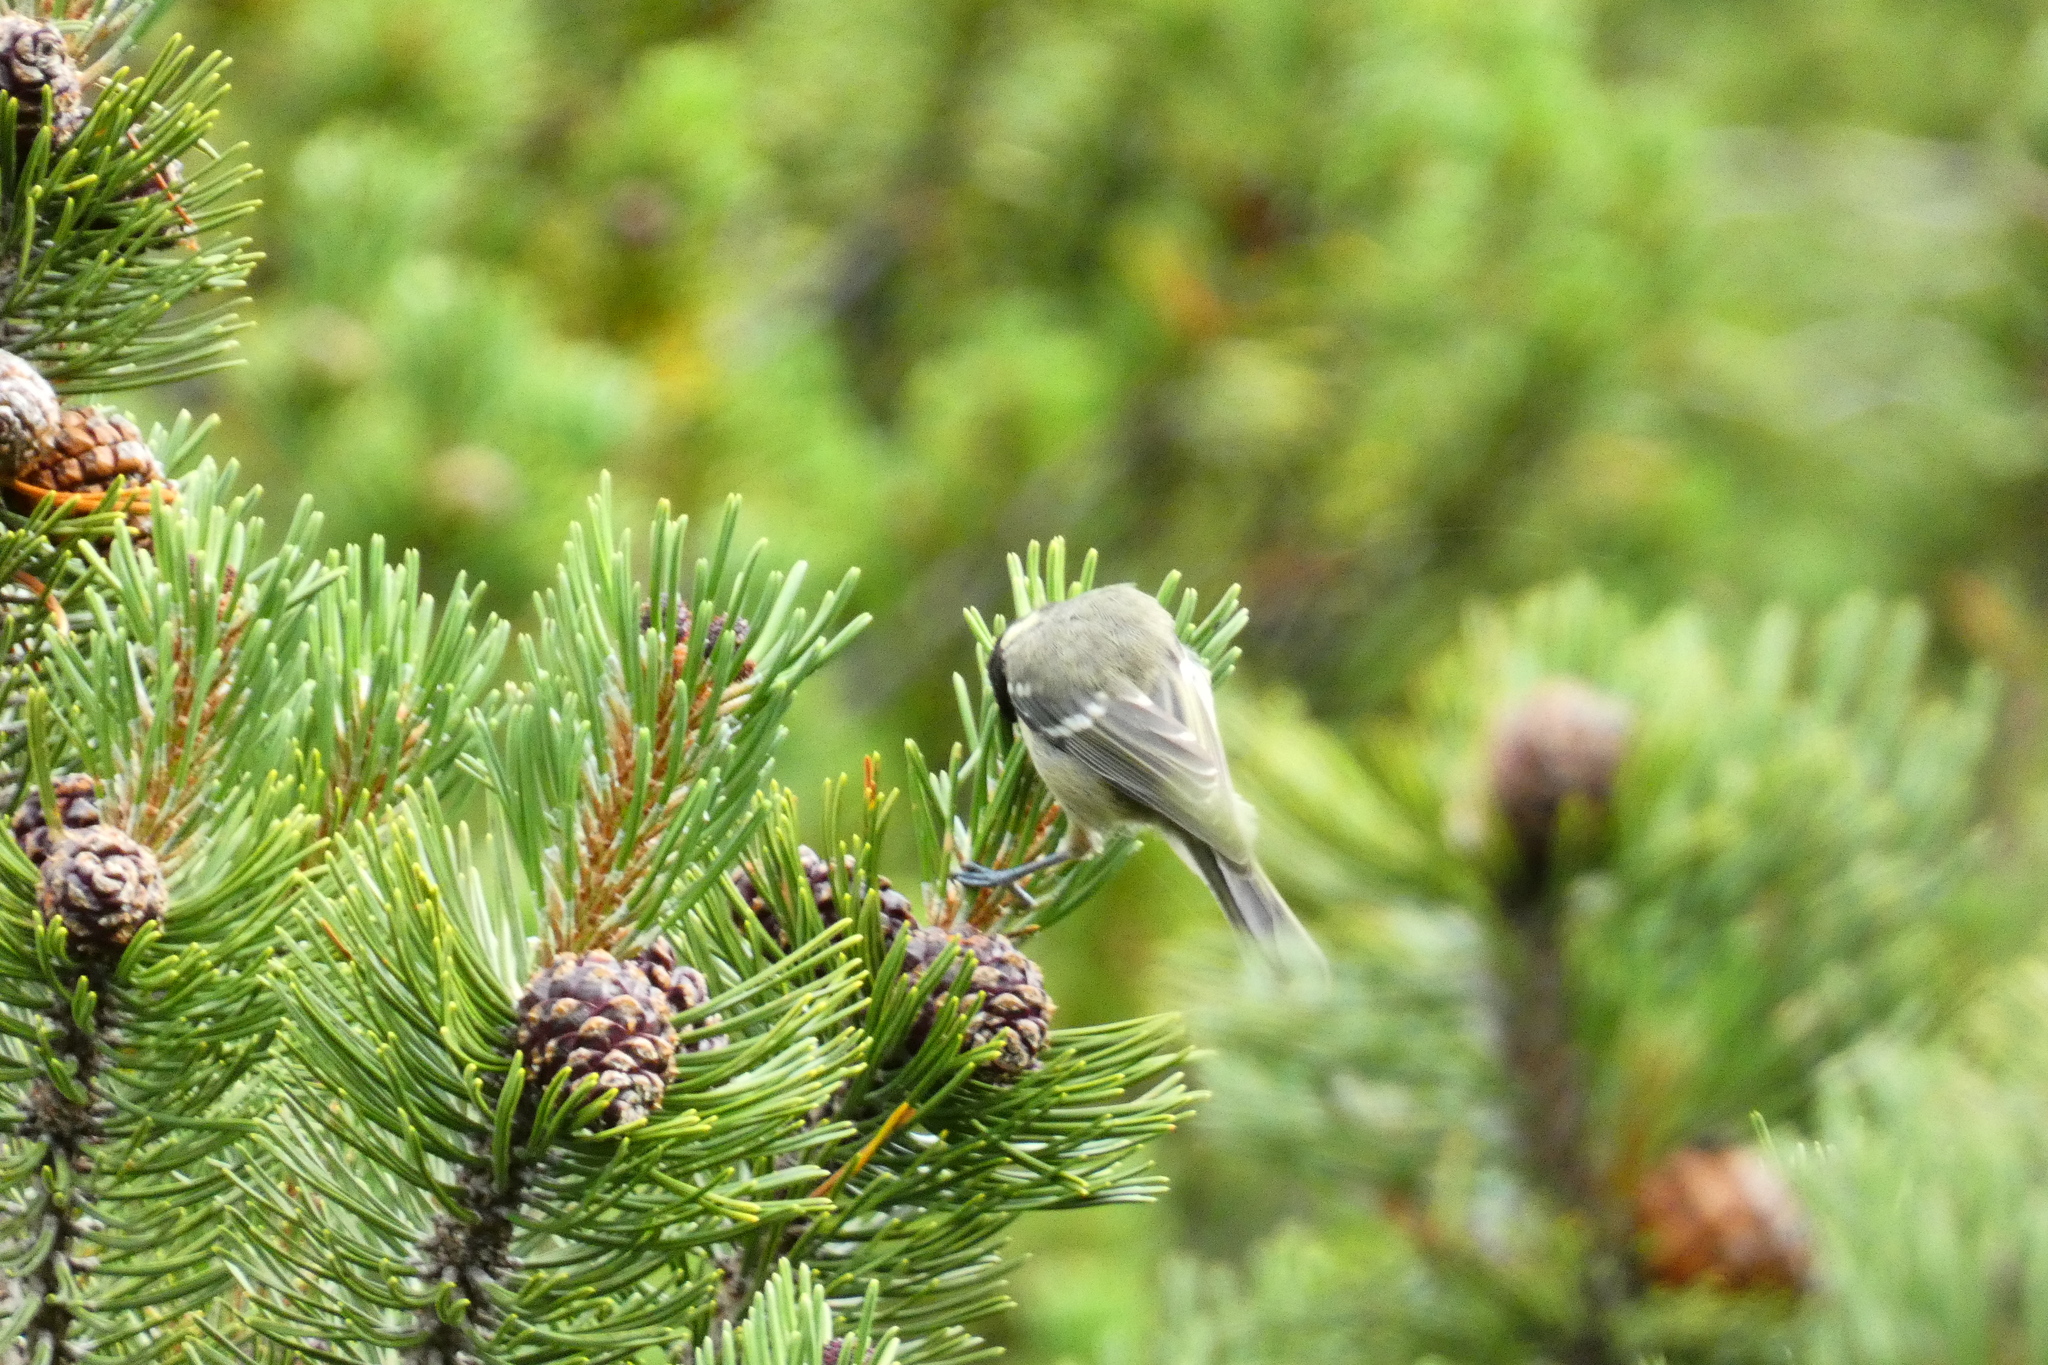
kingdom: Animalia
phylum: Chordata
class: Aves
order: Passeriformes
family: Paridae
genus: Periparus
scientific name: Periparus ater
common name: Coal tit
